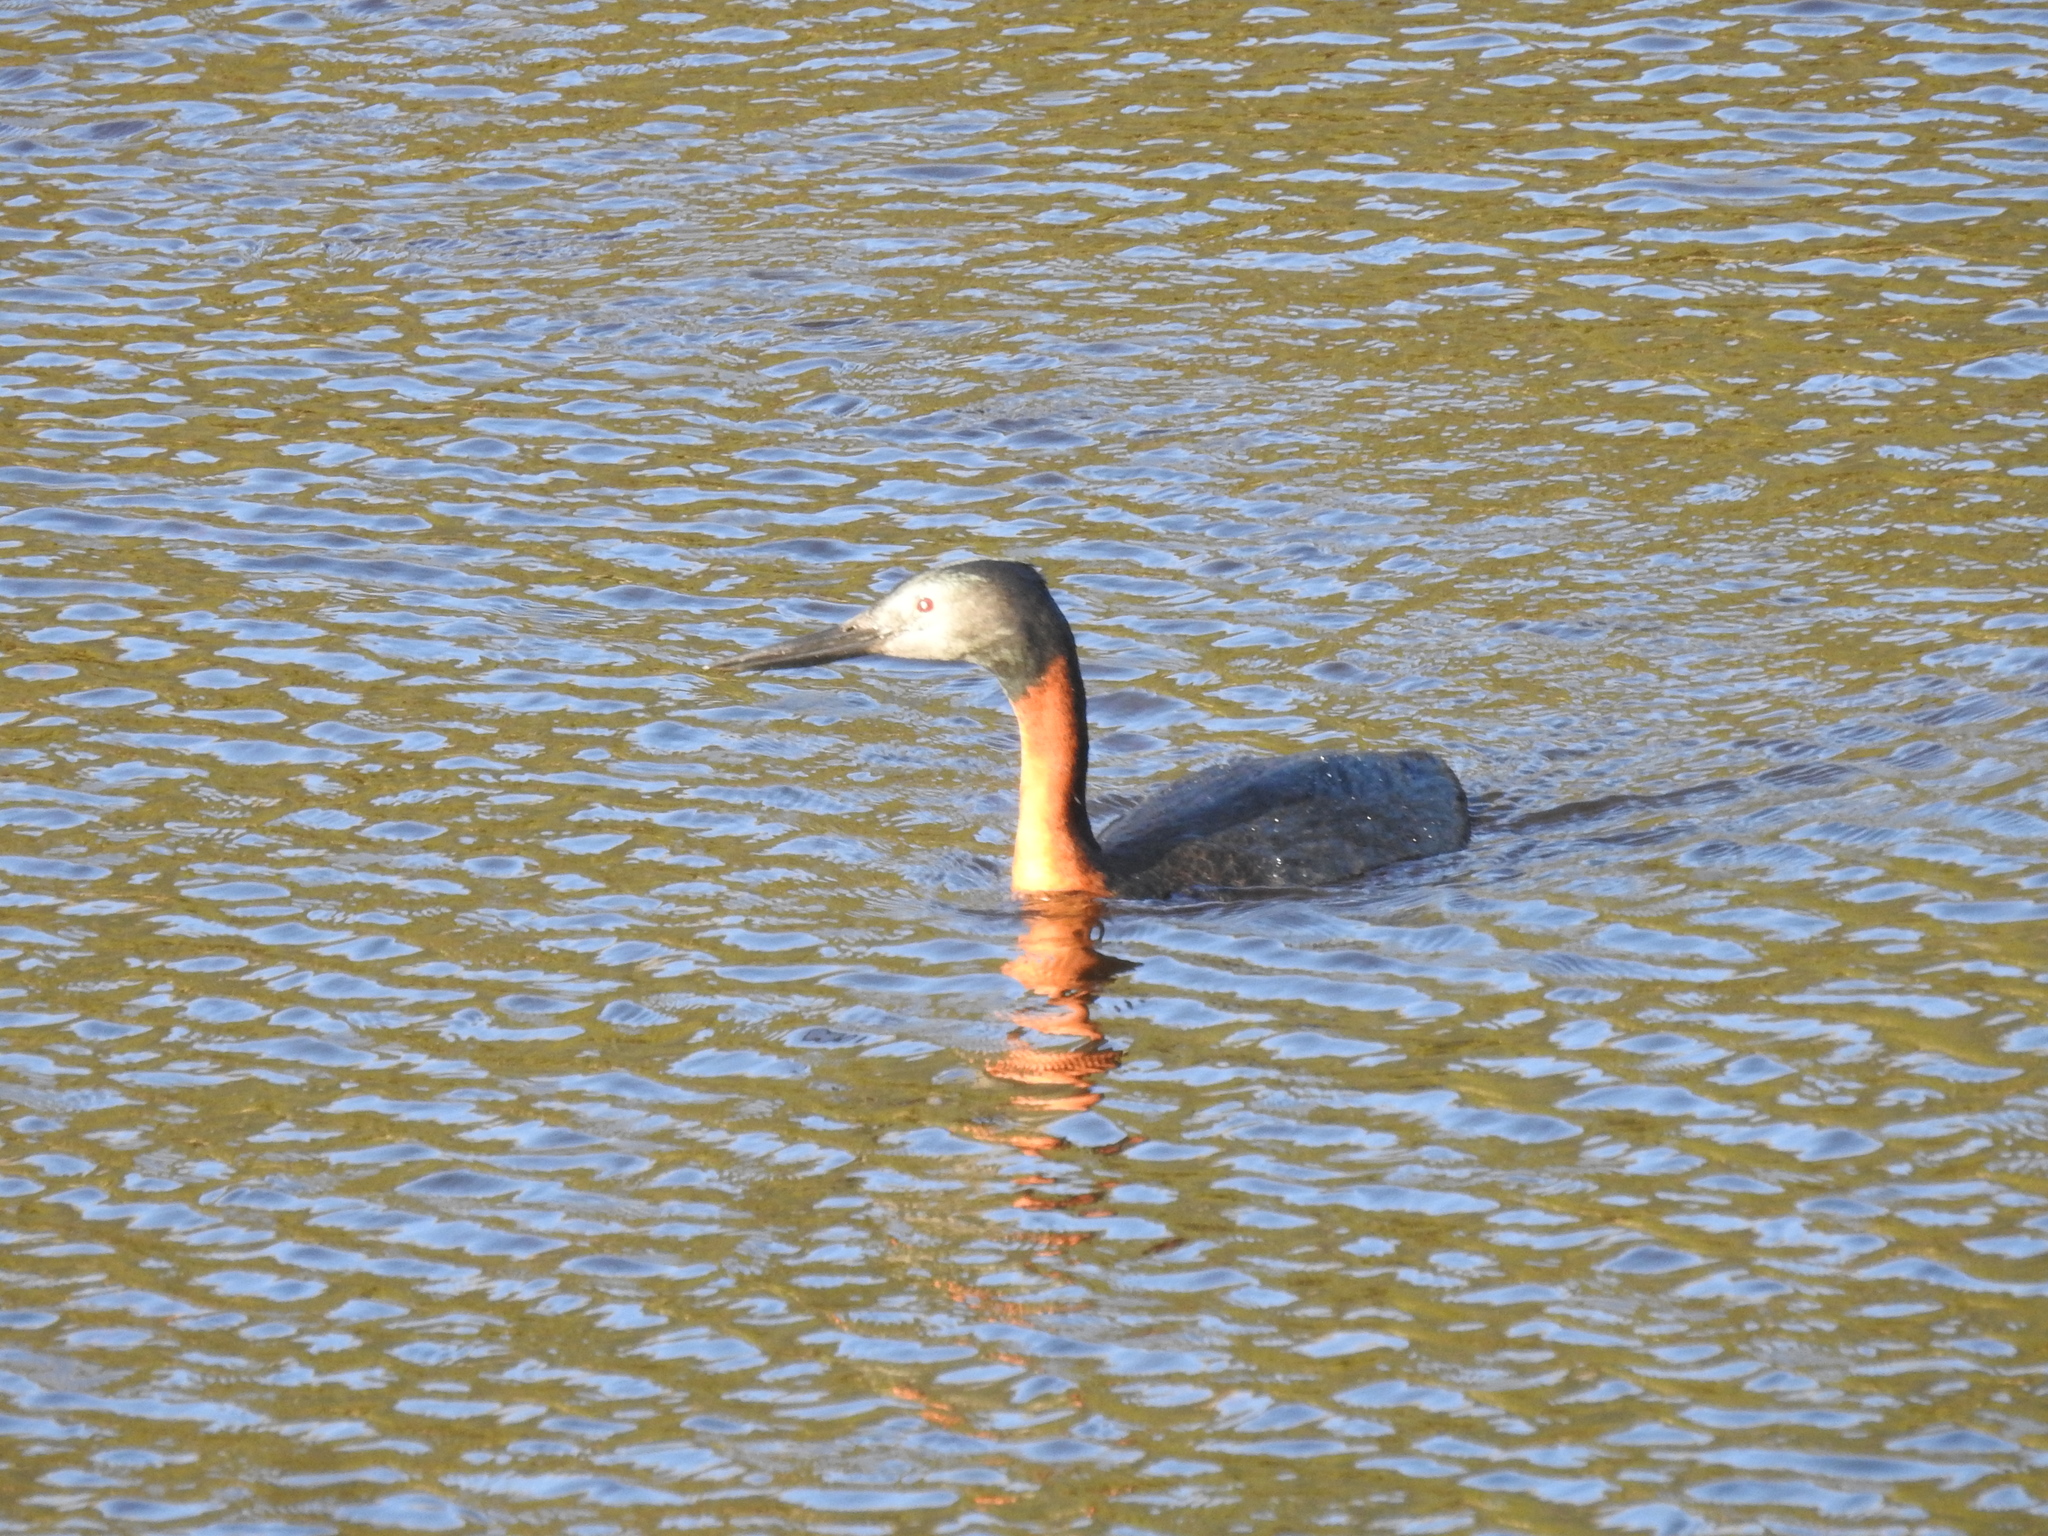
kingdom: Animalia
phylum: Chordata
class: Aves
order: Podicipediformes
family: Podicipedidae
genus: Podiceps
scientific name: Podiceps major
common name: Great grebe
